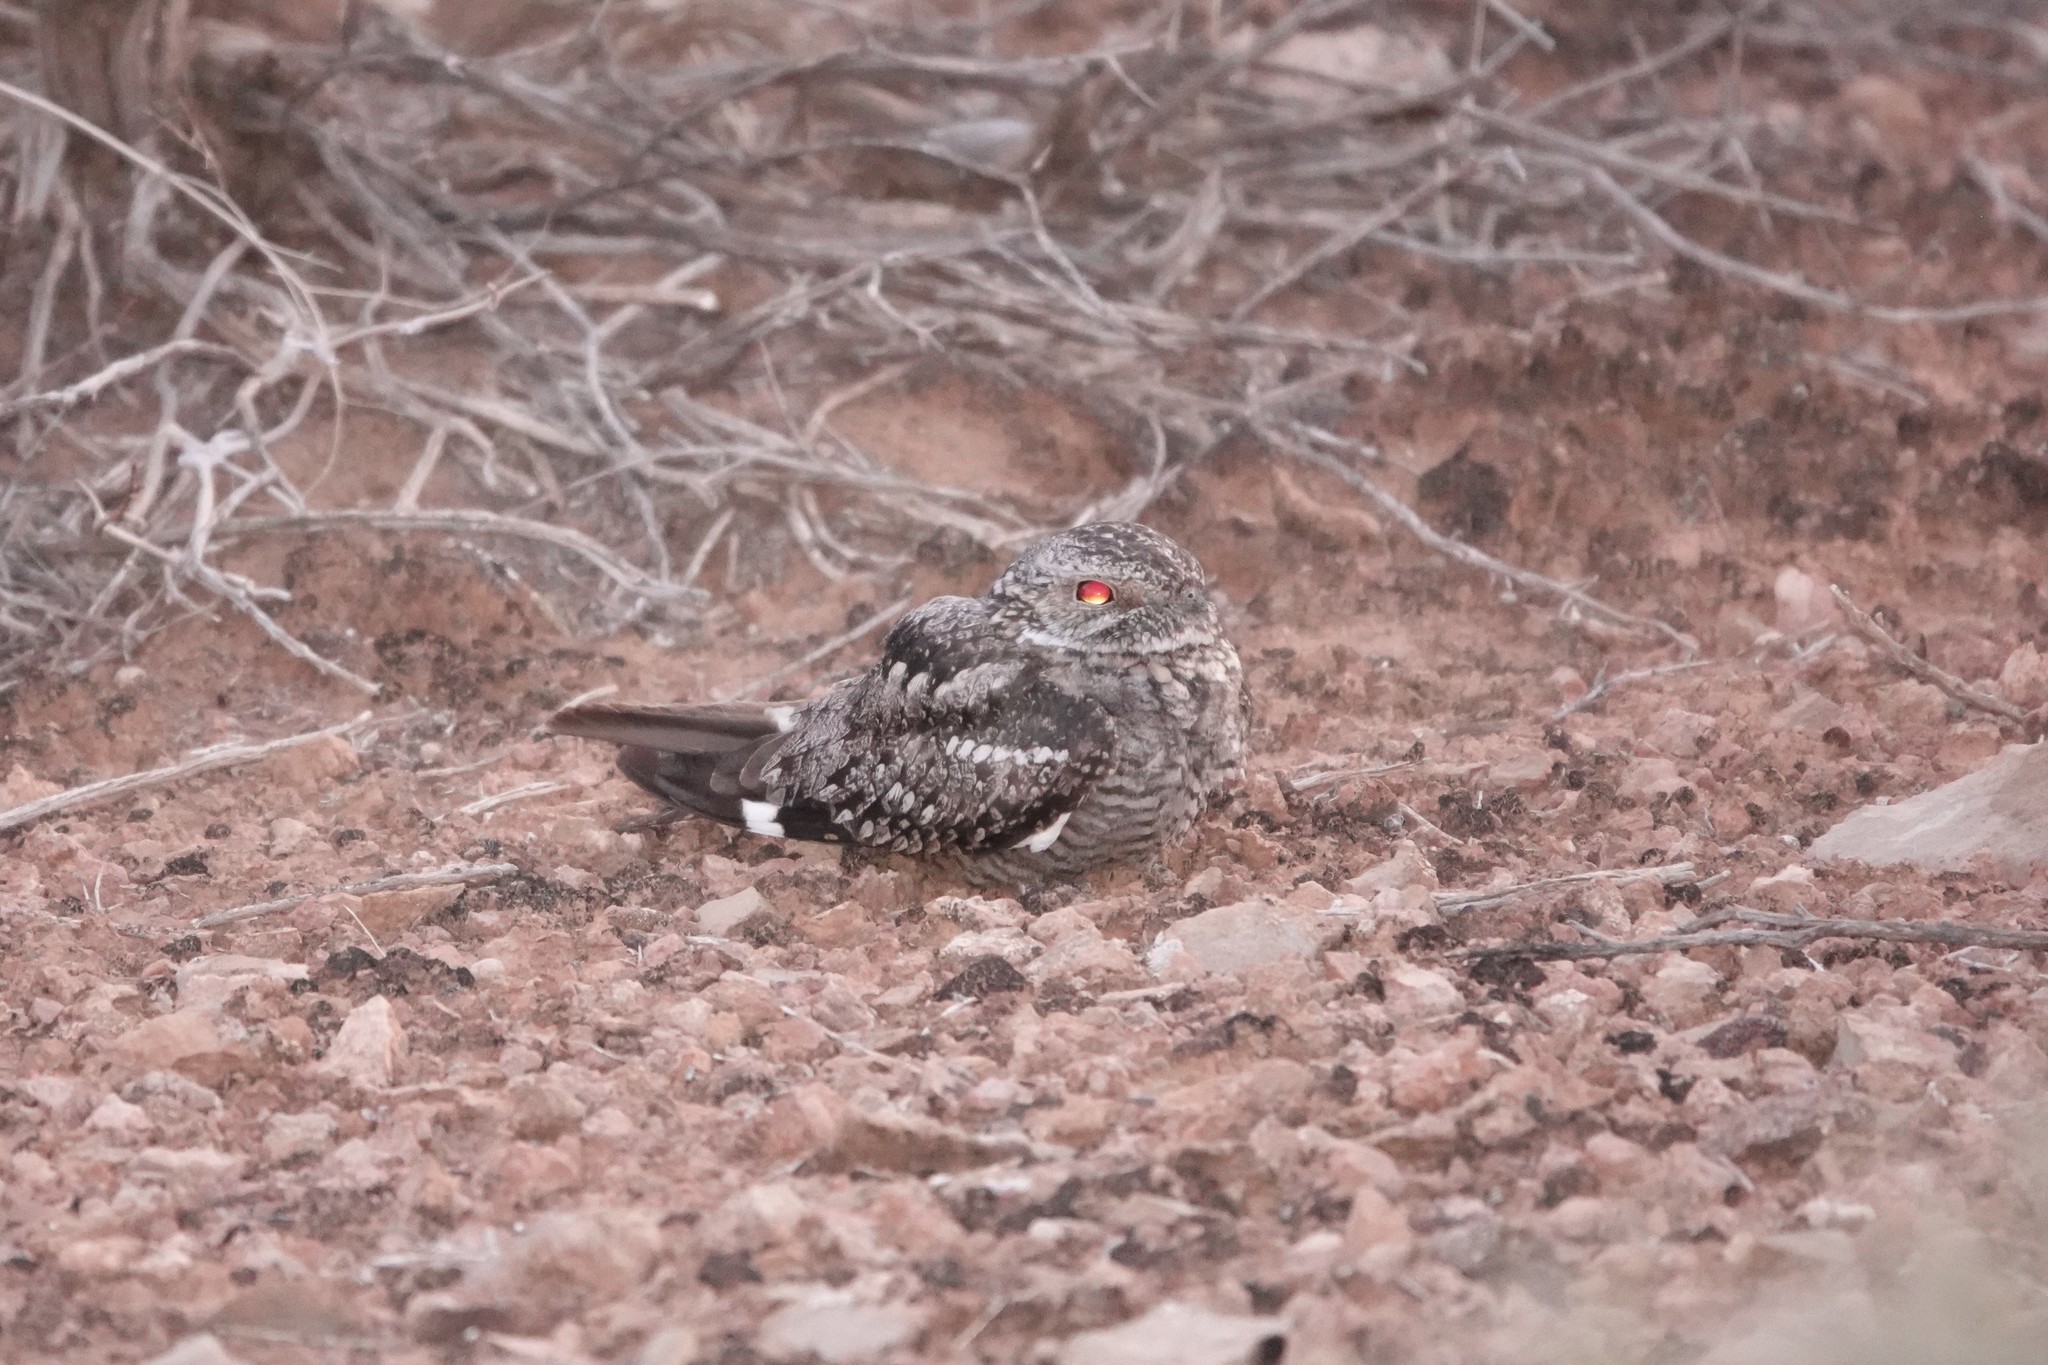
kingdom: Animalia
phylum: Chordata
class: Aves
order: Caprimulgiformes
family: Caprimulgidae
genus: Chordeiles
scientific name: Chordeiles acutipennis
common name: Lesser nighthawk
